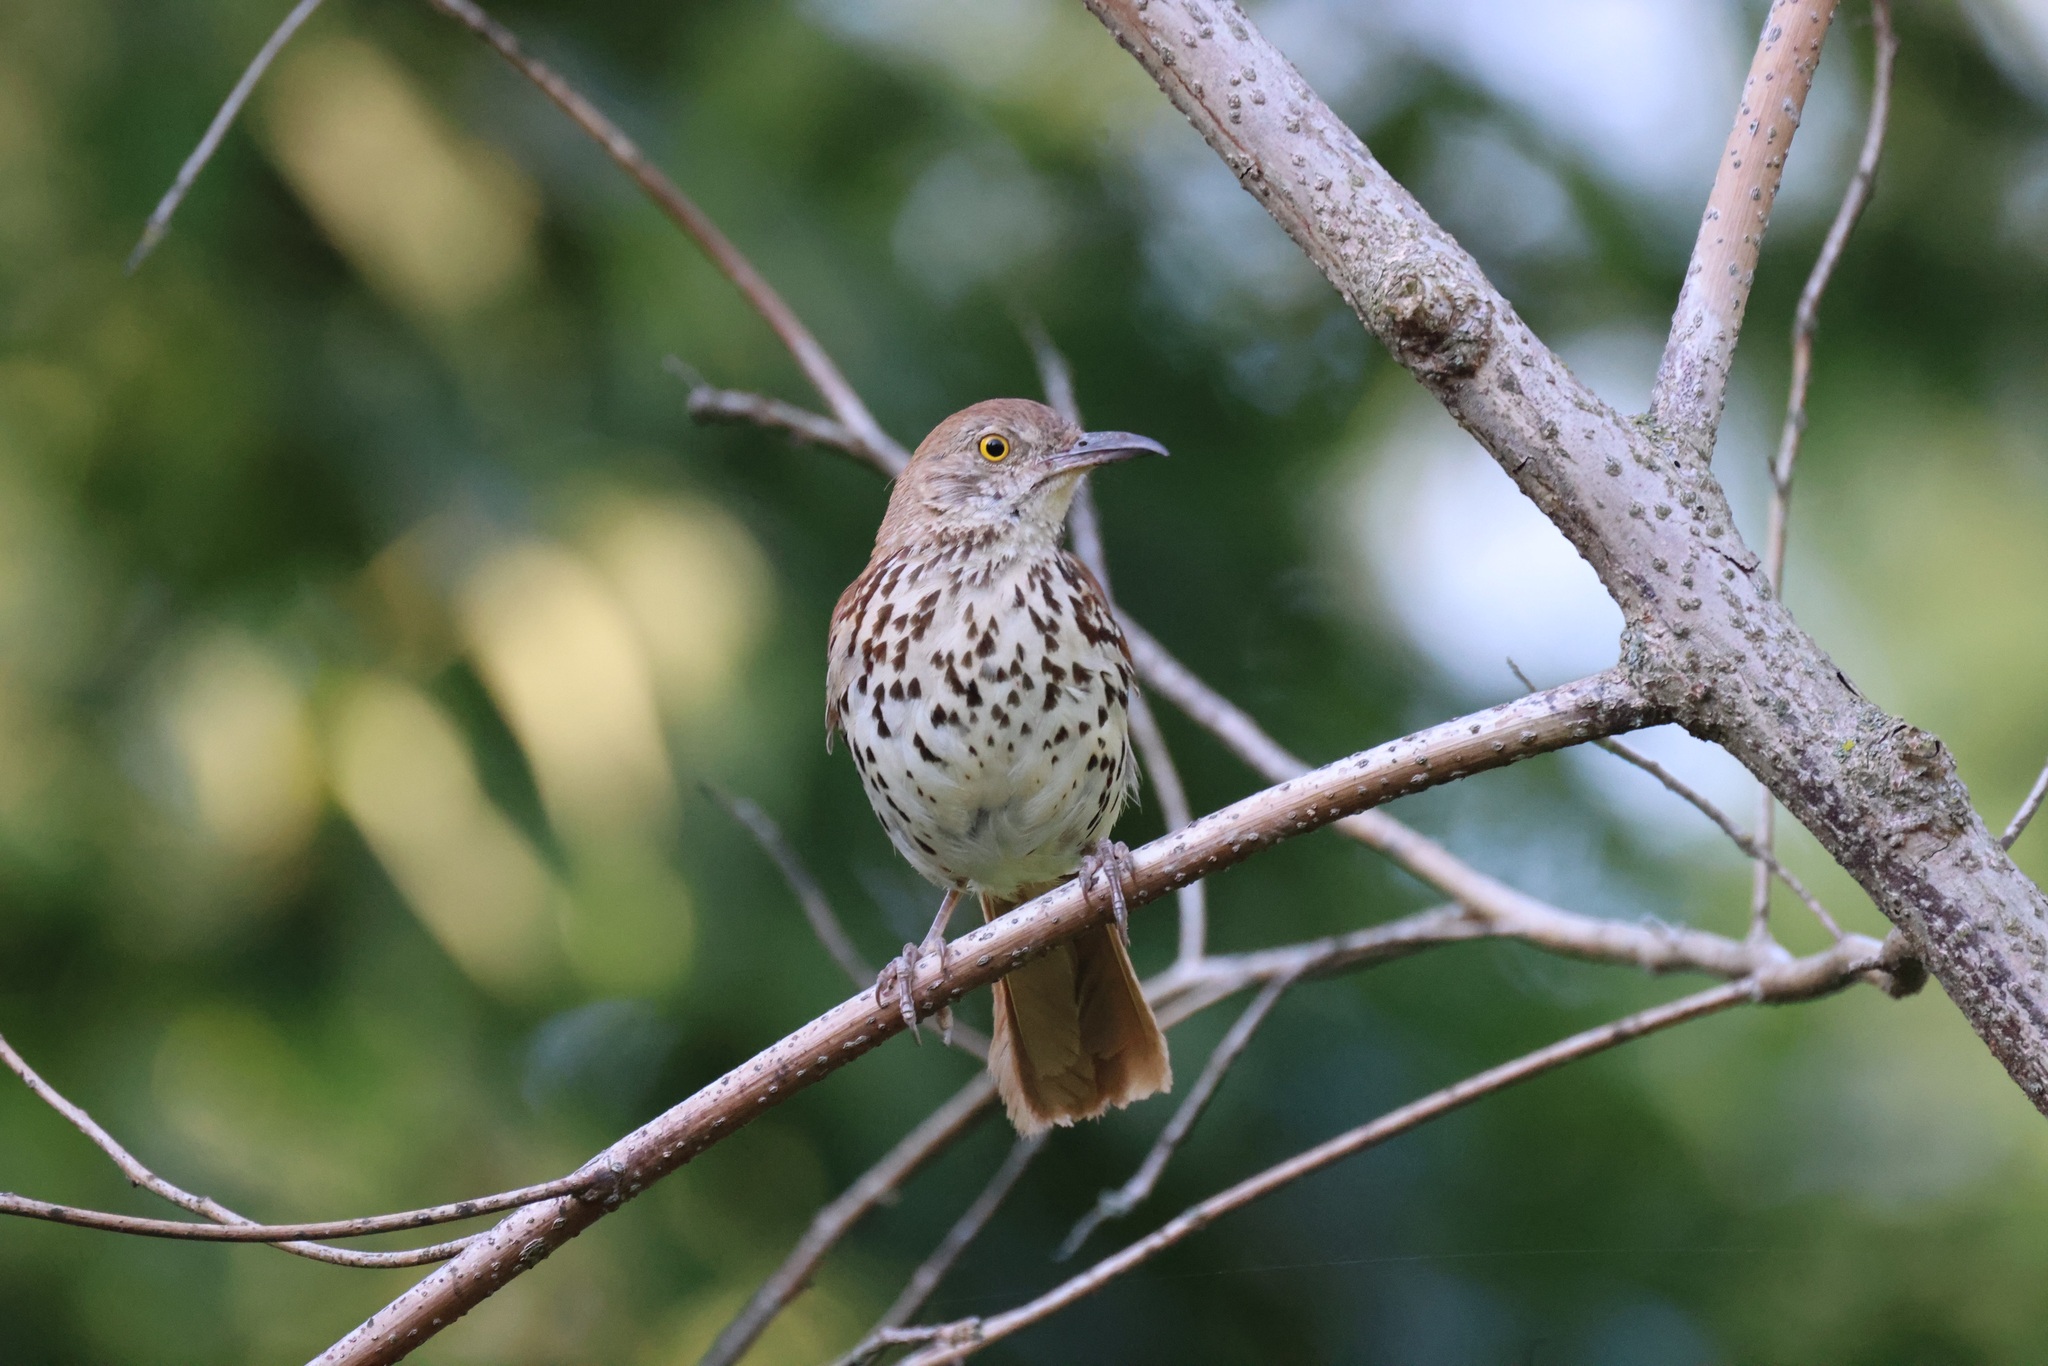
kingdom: Animalia
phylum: Chordata
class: Aves
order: Passeriformes
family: Mimidae
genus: Toxostoma
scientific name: Toxostoma rufum
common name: Brown thrasher
